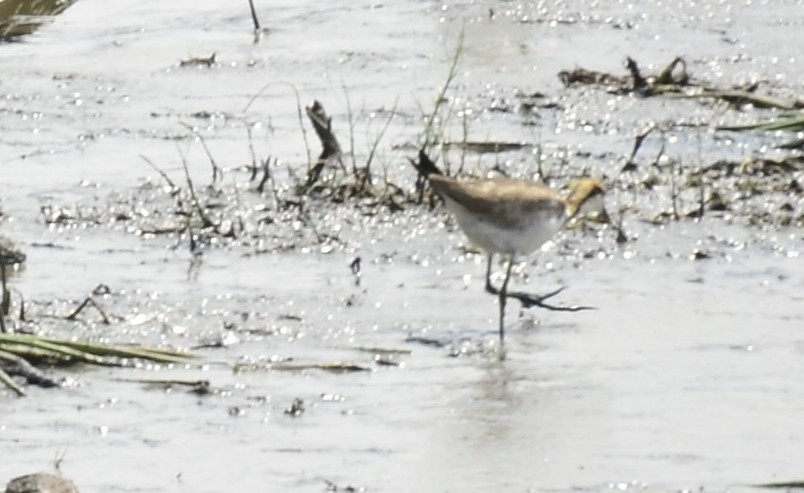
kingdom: Animalia
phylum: Chordata
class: Aves
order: Charadriiformes
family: Jacanidae
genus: Hydrophasianus
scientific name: Hydrophasianus chirurgus
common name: Pheasant-tailed jacana
